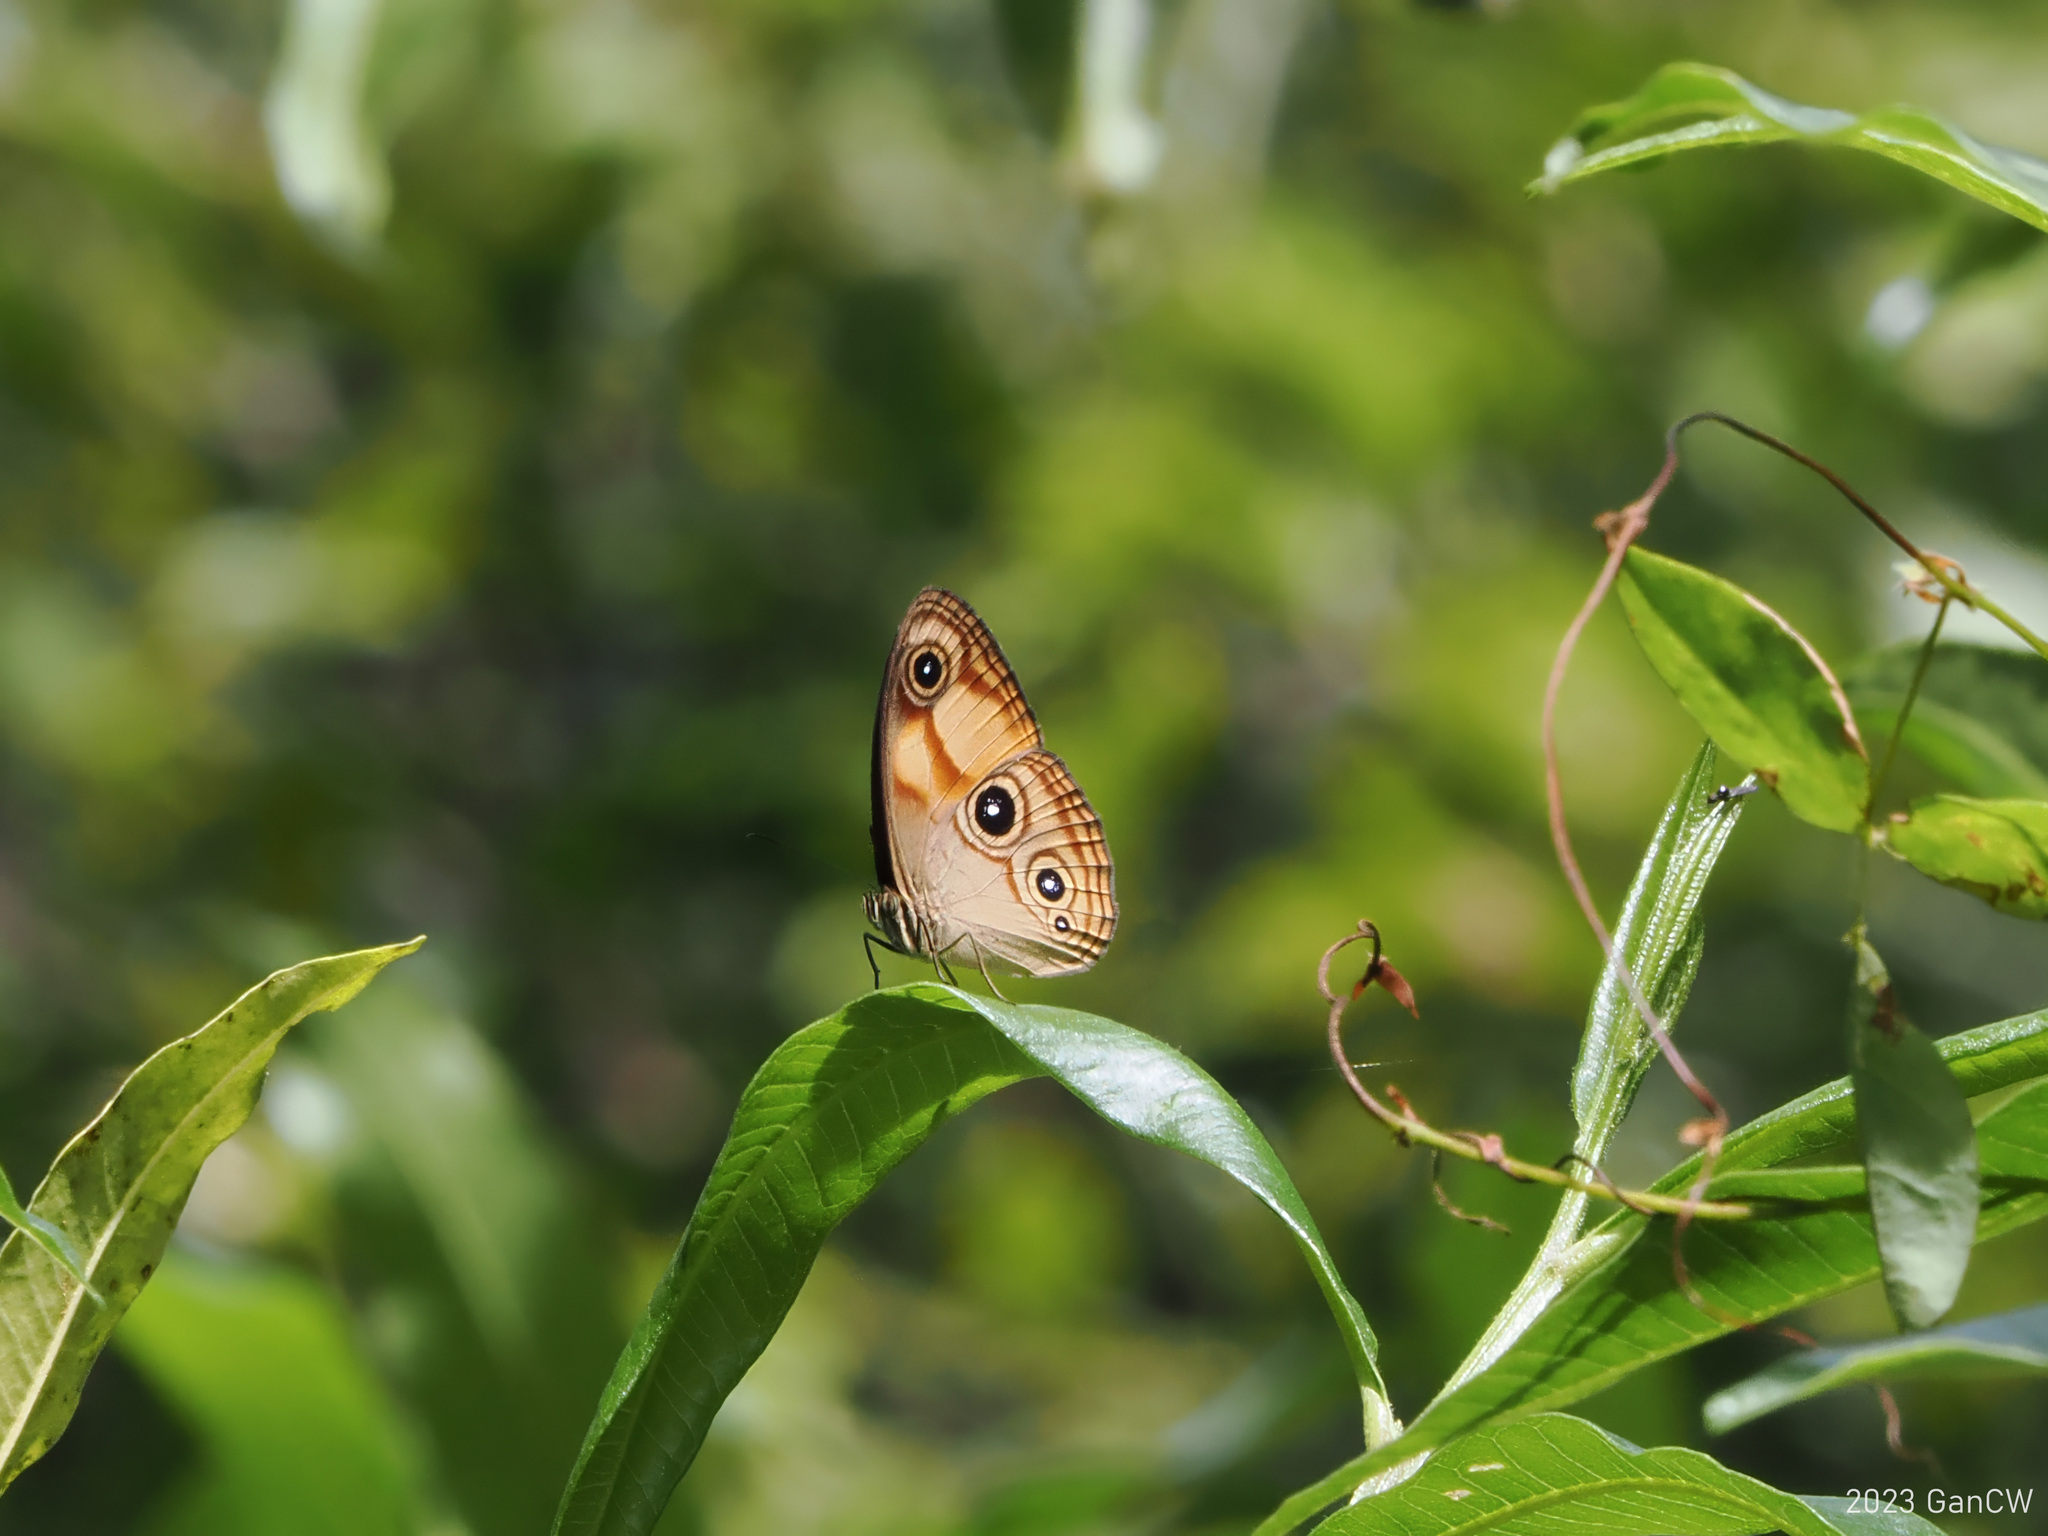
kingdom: Animalia
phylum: Arthropoda
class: Insecta
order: Lepidoptera
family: Nymphalidae
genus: Mycalesis
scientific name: Mycalesis
